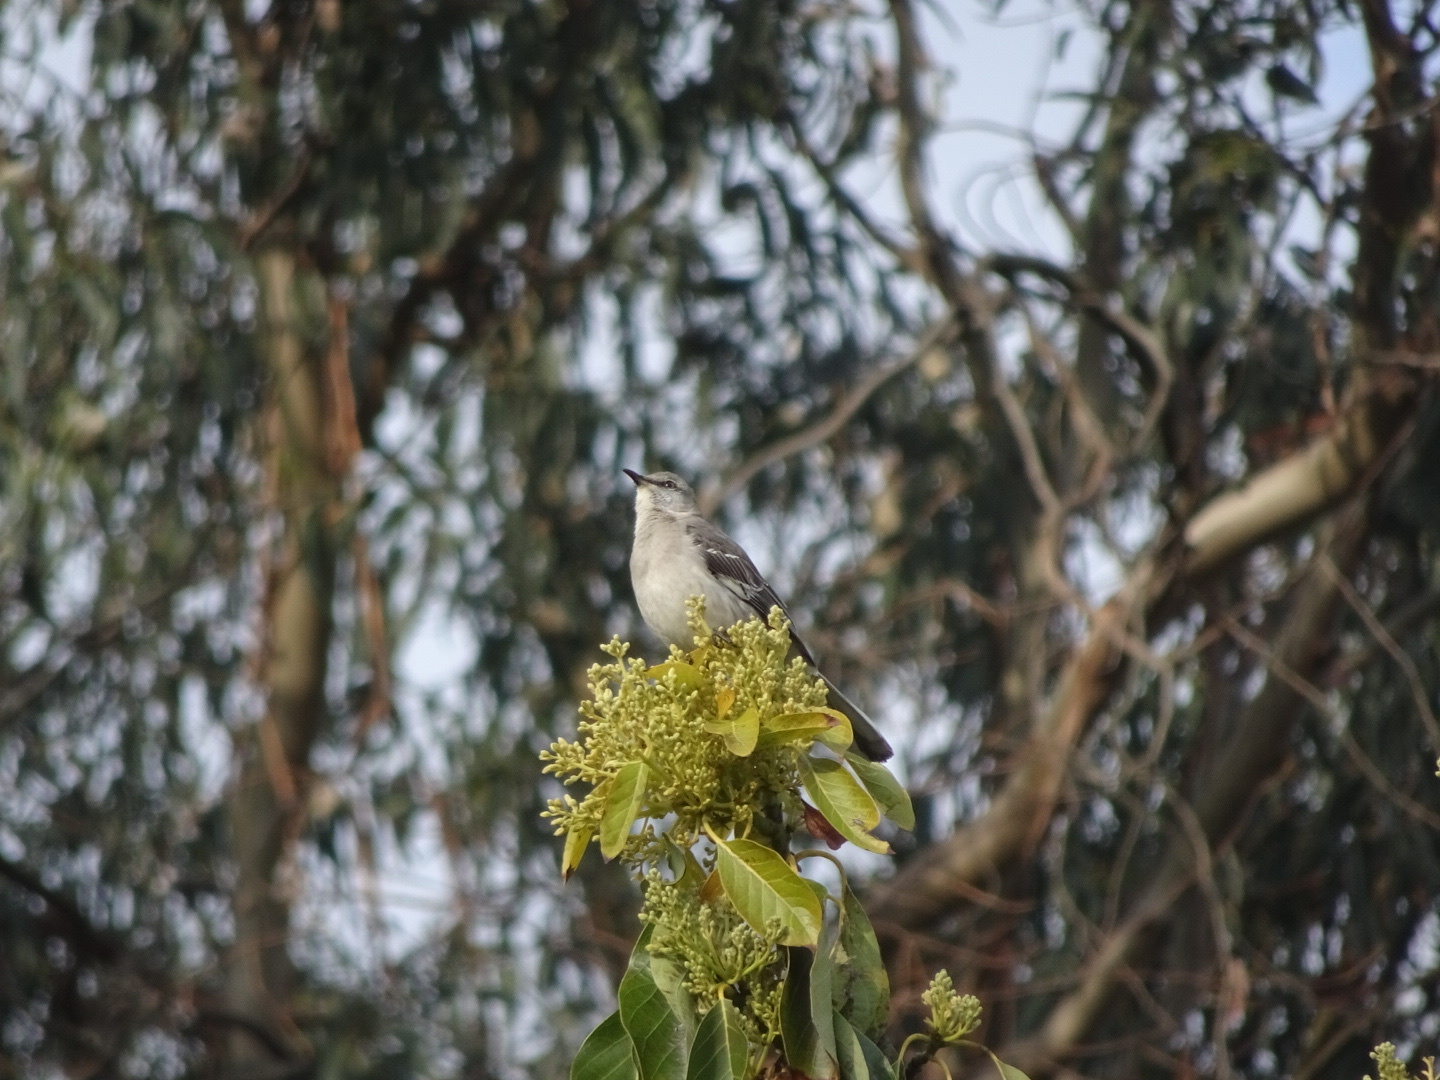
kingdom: Animalia
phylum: Chordata
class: Aves
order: Passeriformes
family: Mimidae
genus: Mimus
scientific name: Mimus polyglottos
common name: Northern mockingbird
